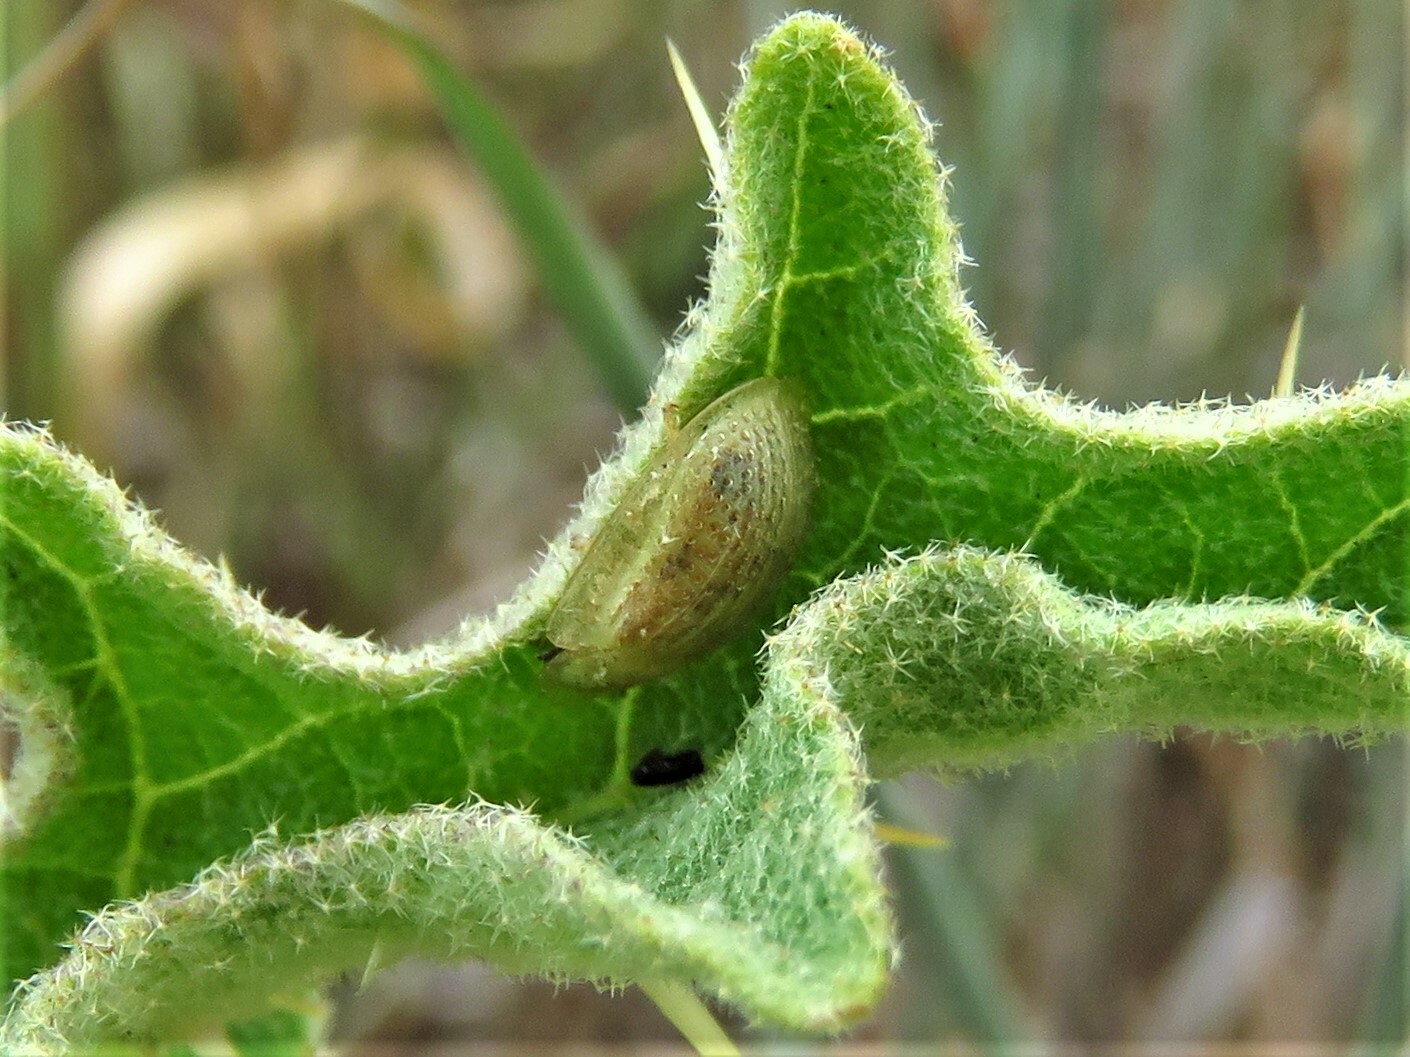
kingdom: Animalia
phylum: Arthropoda
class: Insecta
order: Coleoptera
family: Chrysomelidae
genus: Gratiana
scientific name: Gratiana pallidula
